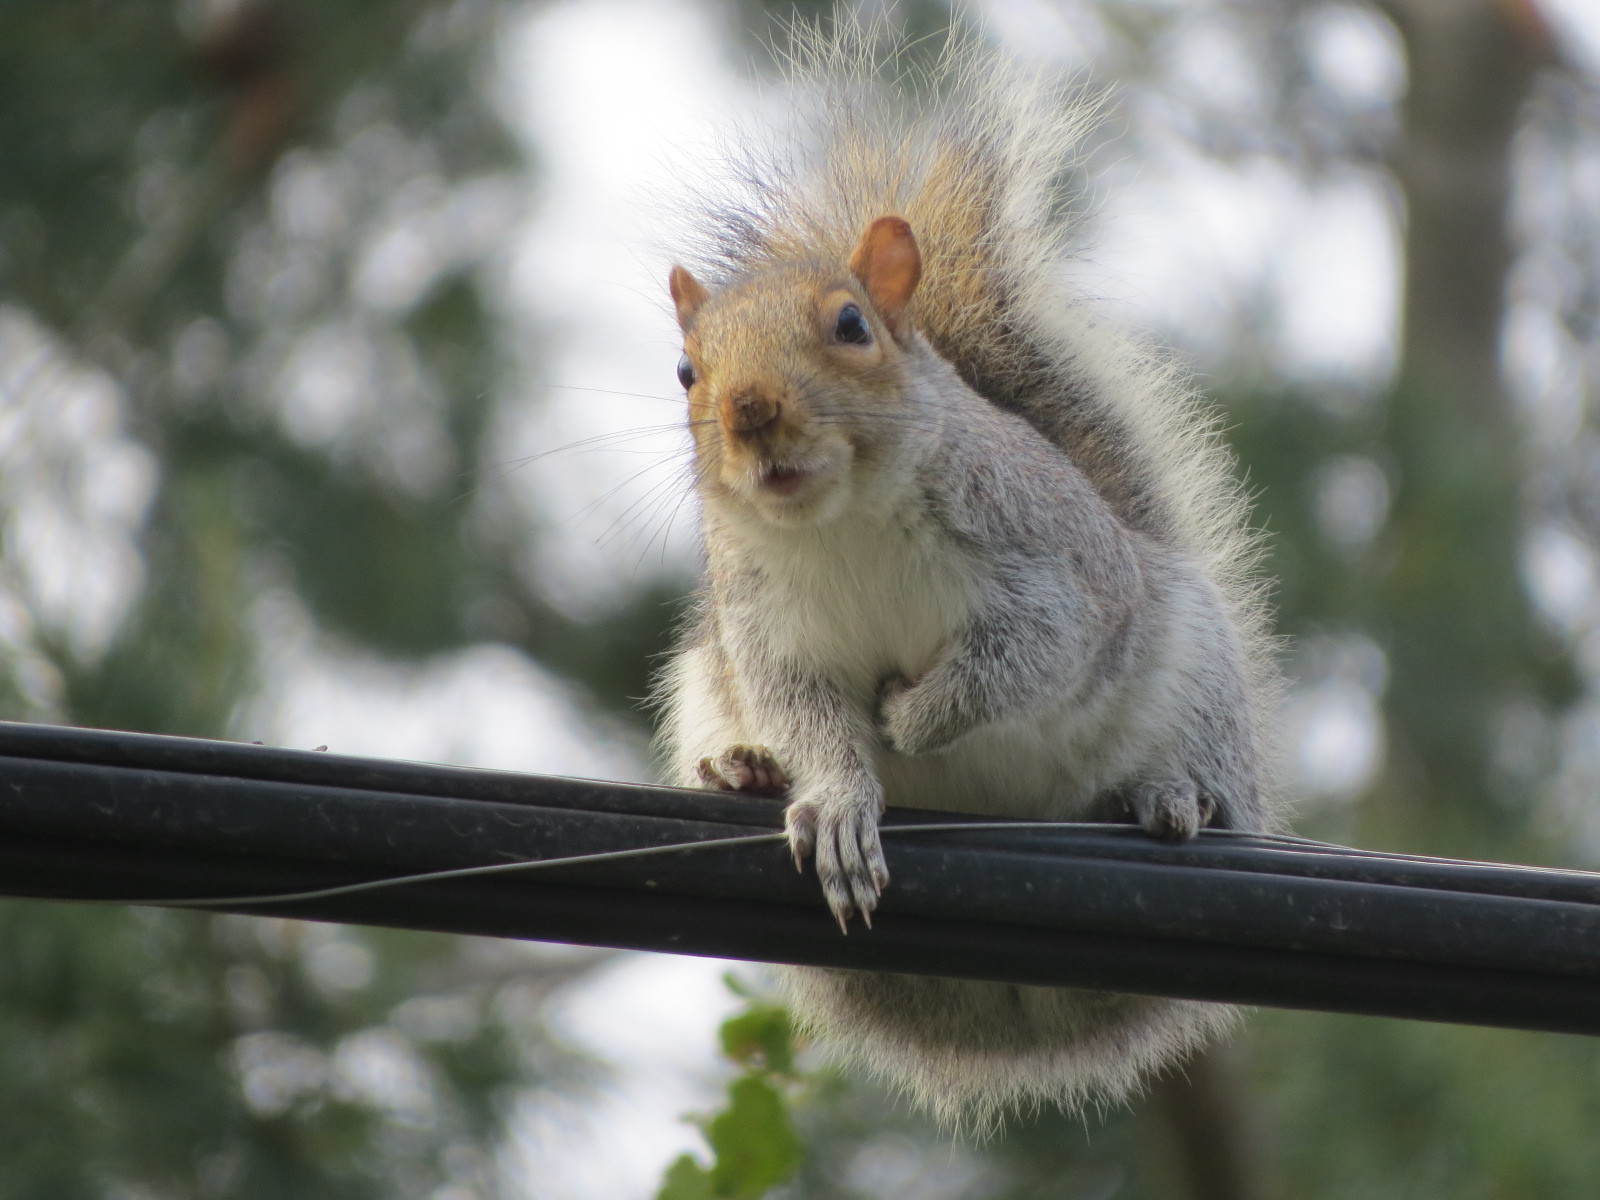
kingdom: Animalia
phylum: Chordata
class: Mammalia
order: Rodentia
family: Sciuridae
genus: Sciurus
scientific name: Sciurus carolinensis
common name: Eastern gray squirrel
